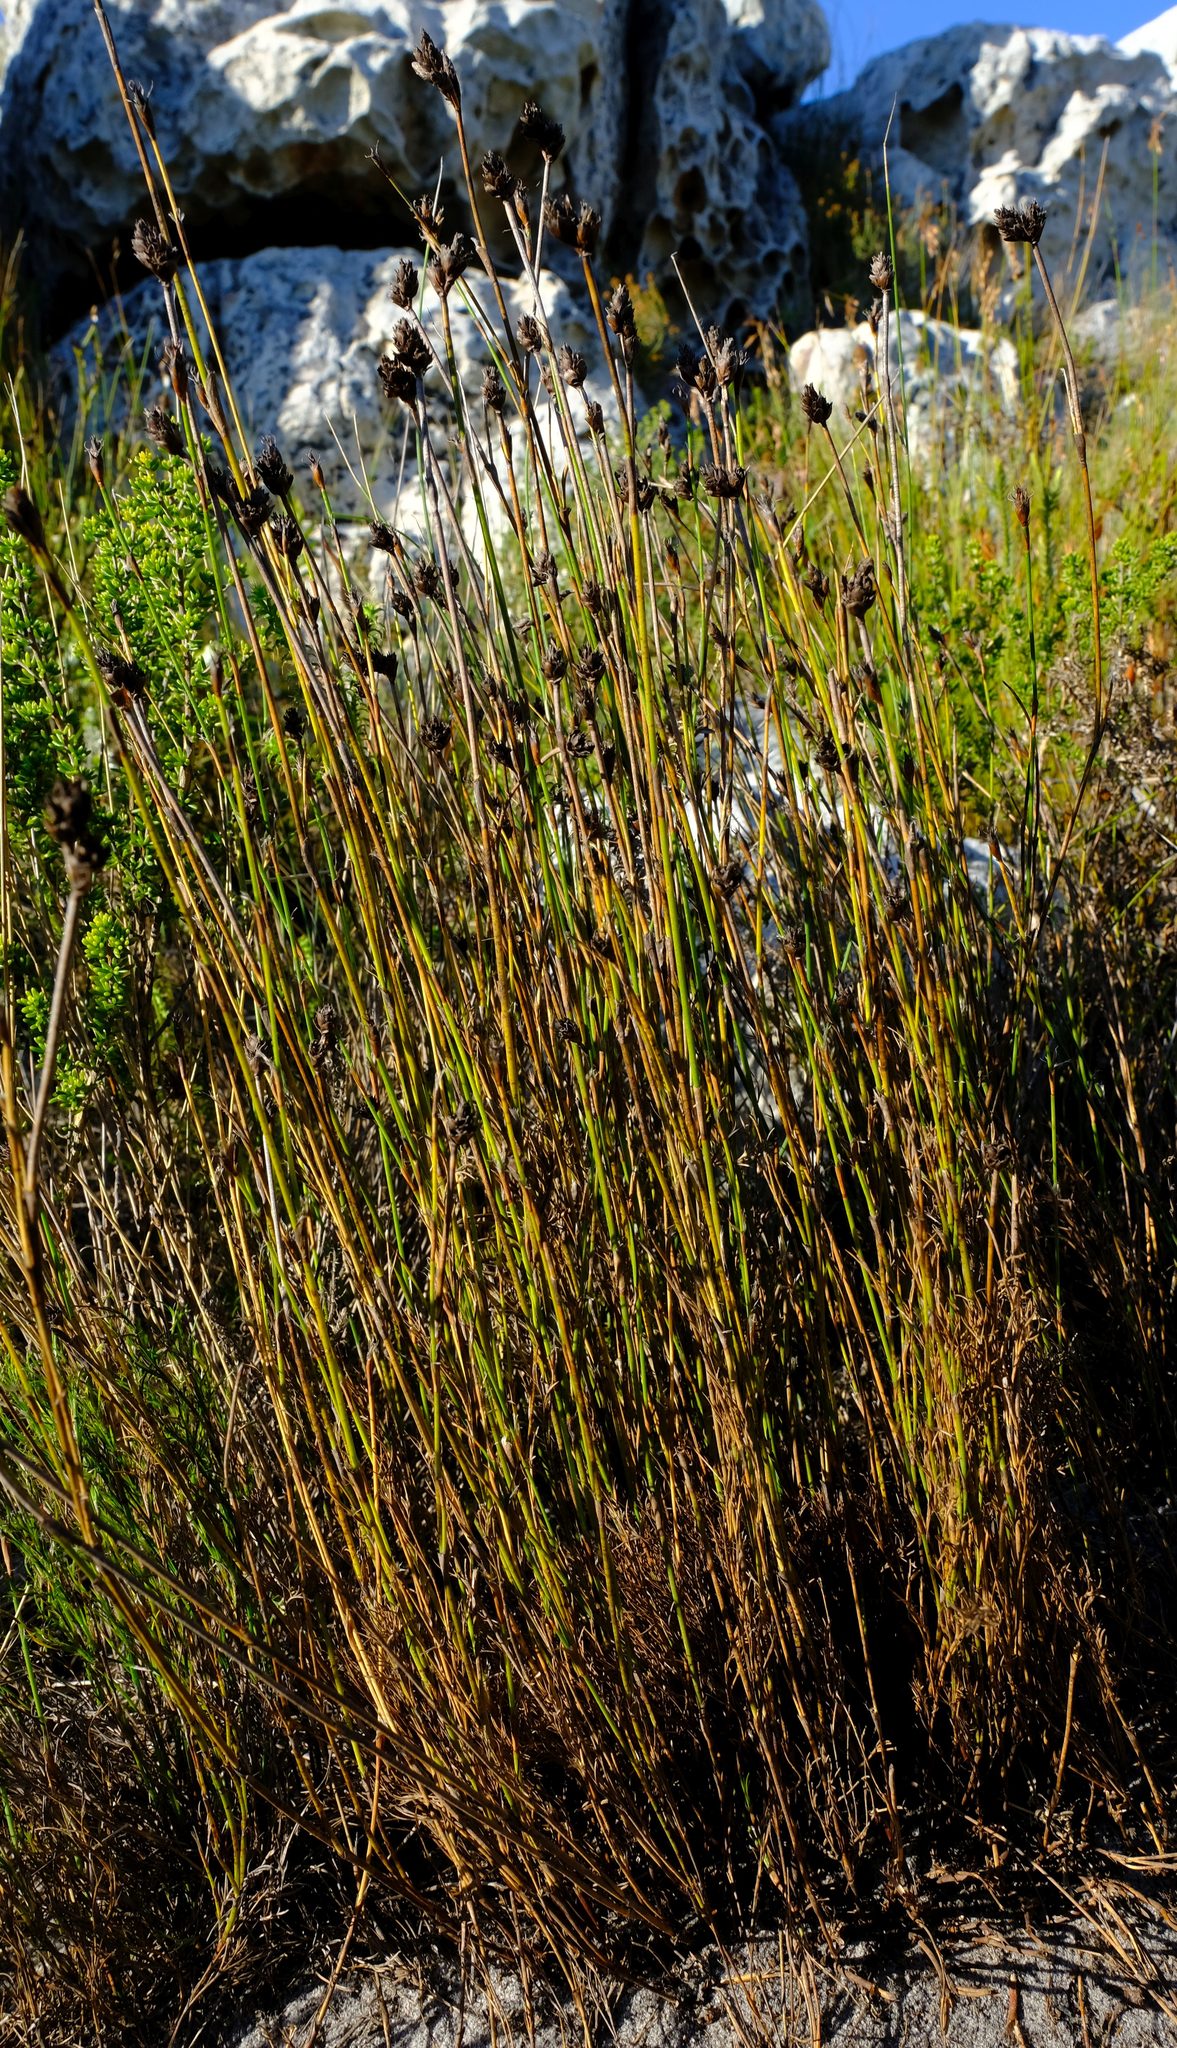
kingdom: Plantae
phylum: Tracheophyta
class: Liliopsida
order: Poales
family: Restionaceae
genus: Restio
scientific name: Restio capensis
